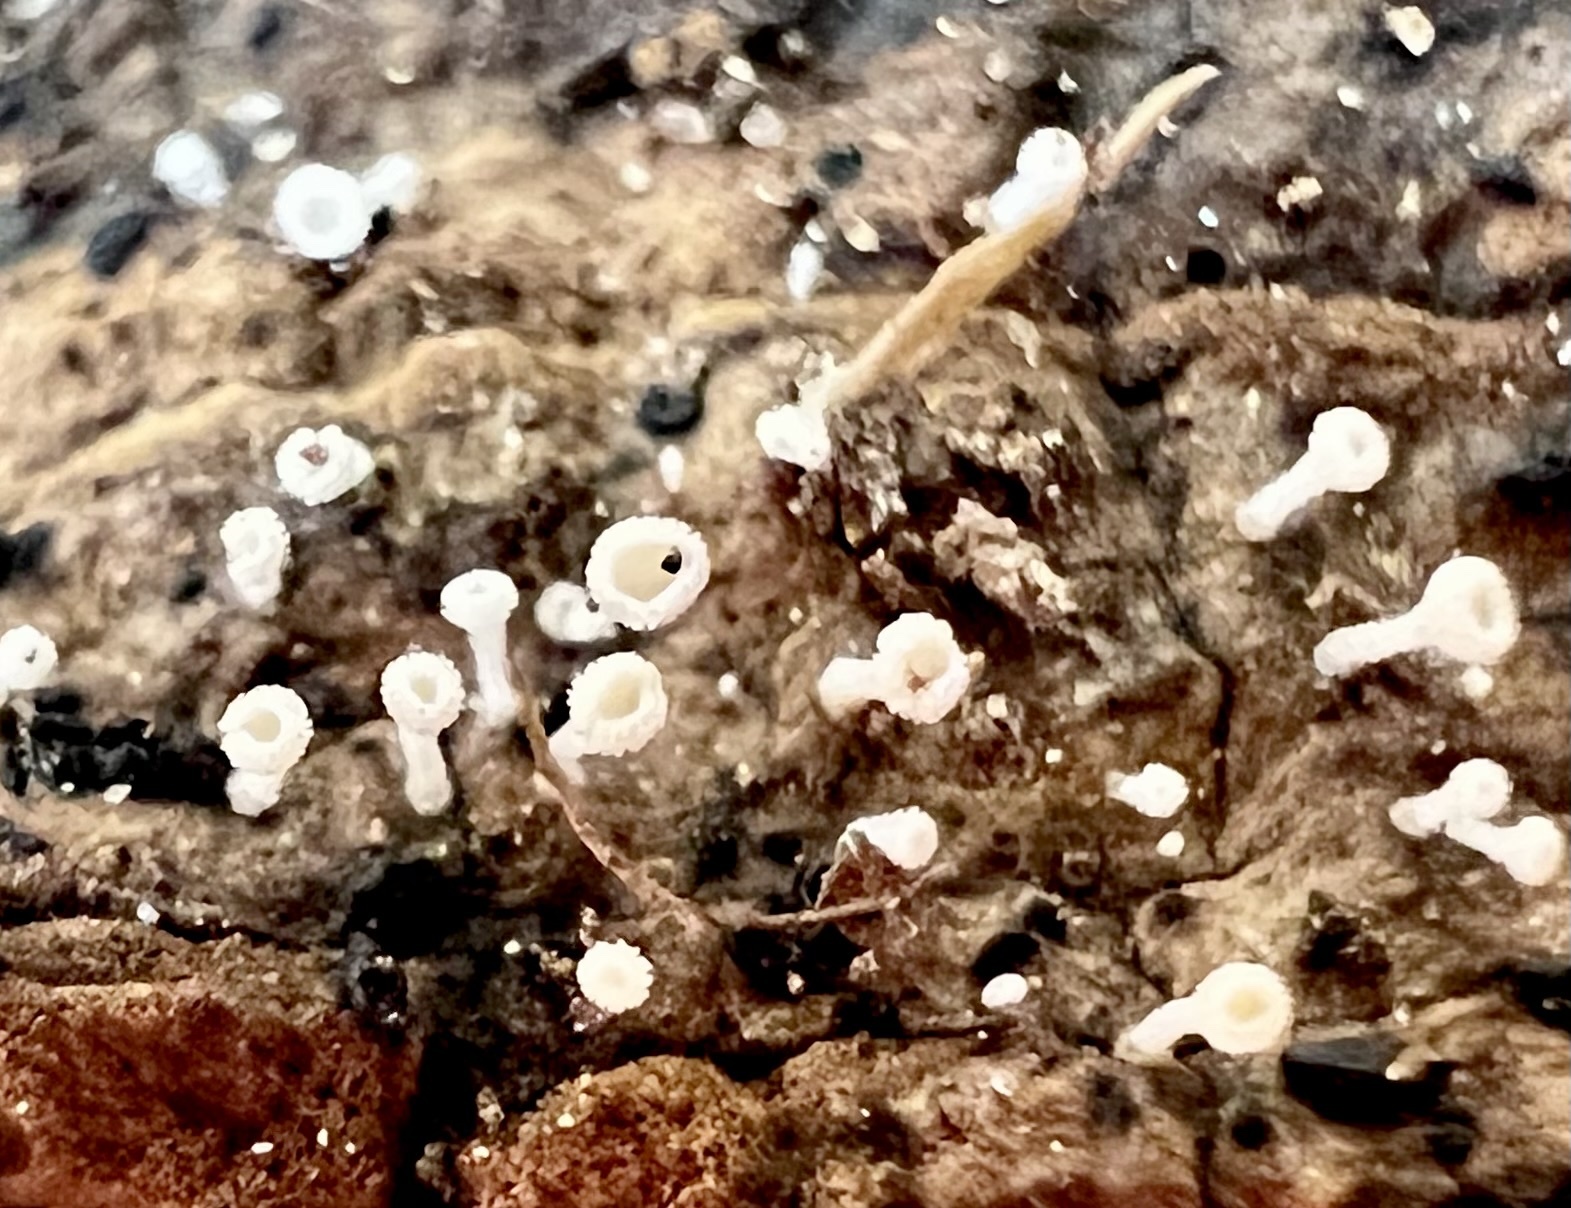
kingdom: Fungi
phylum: Ascomycota
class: Leotiomycetes
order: Helotiales
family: Lachnaceae
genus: Lachnum
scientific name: Lachnum virgineum
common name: Snowy disco
